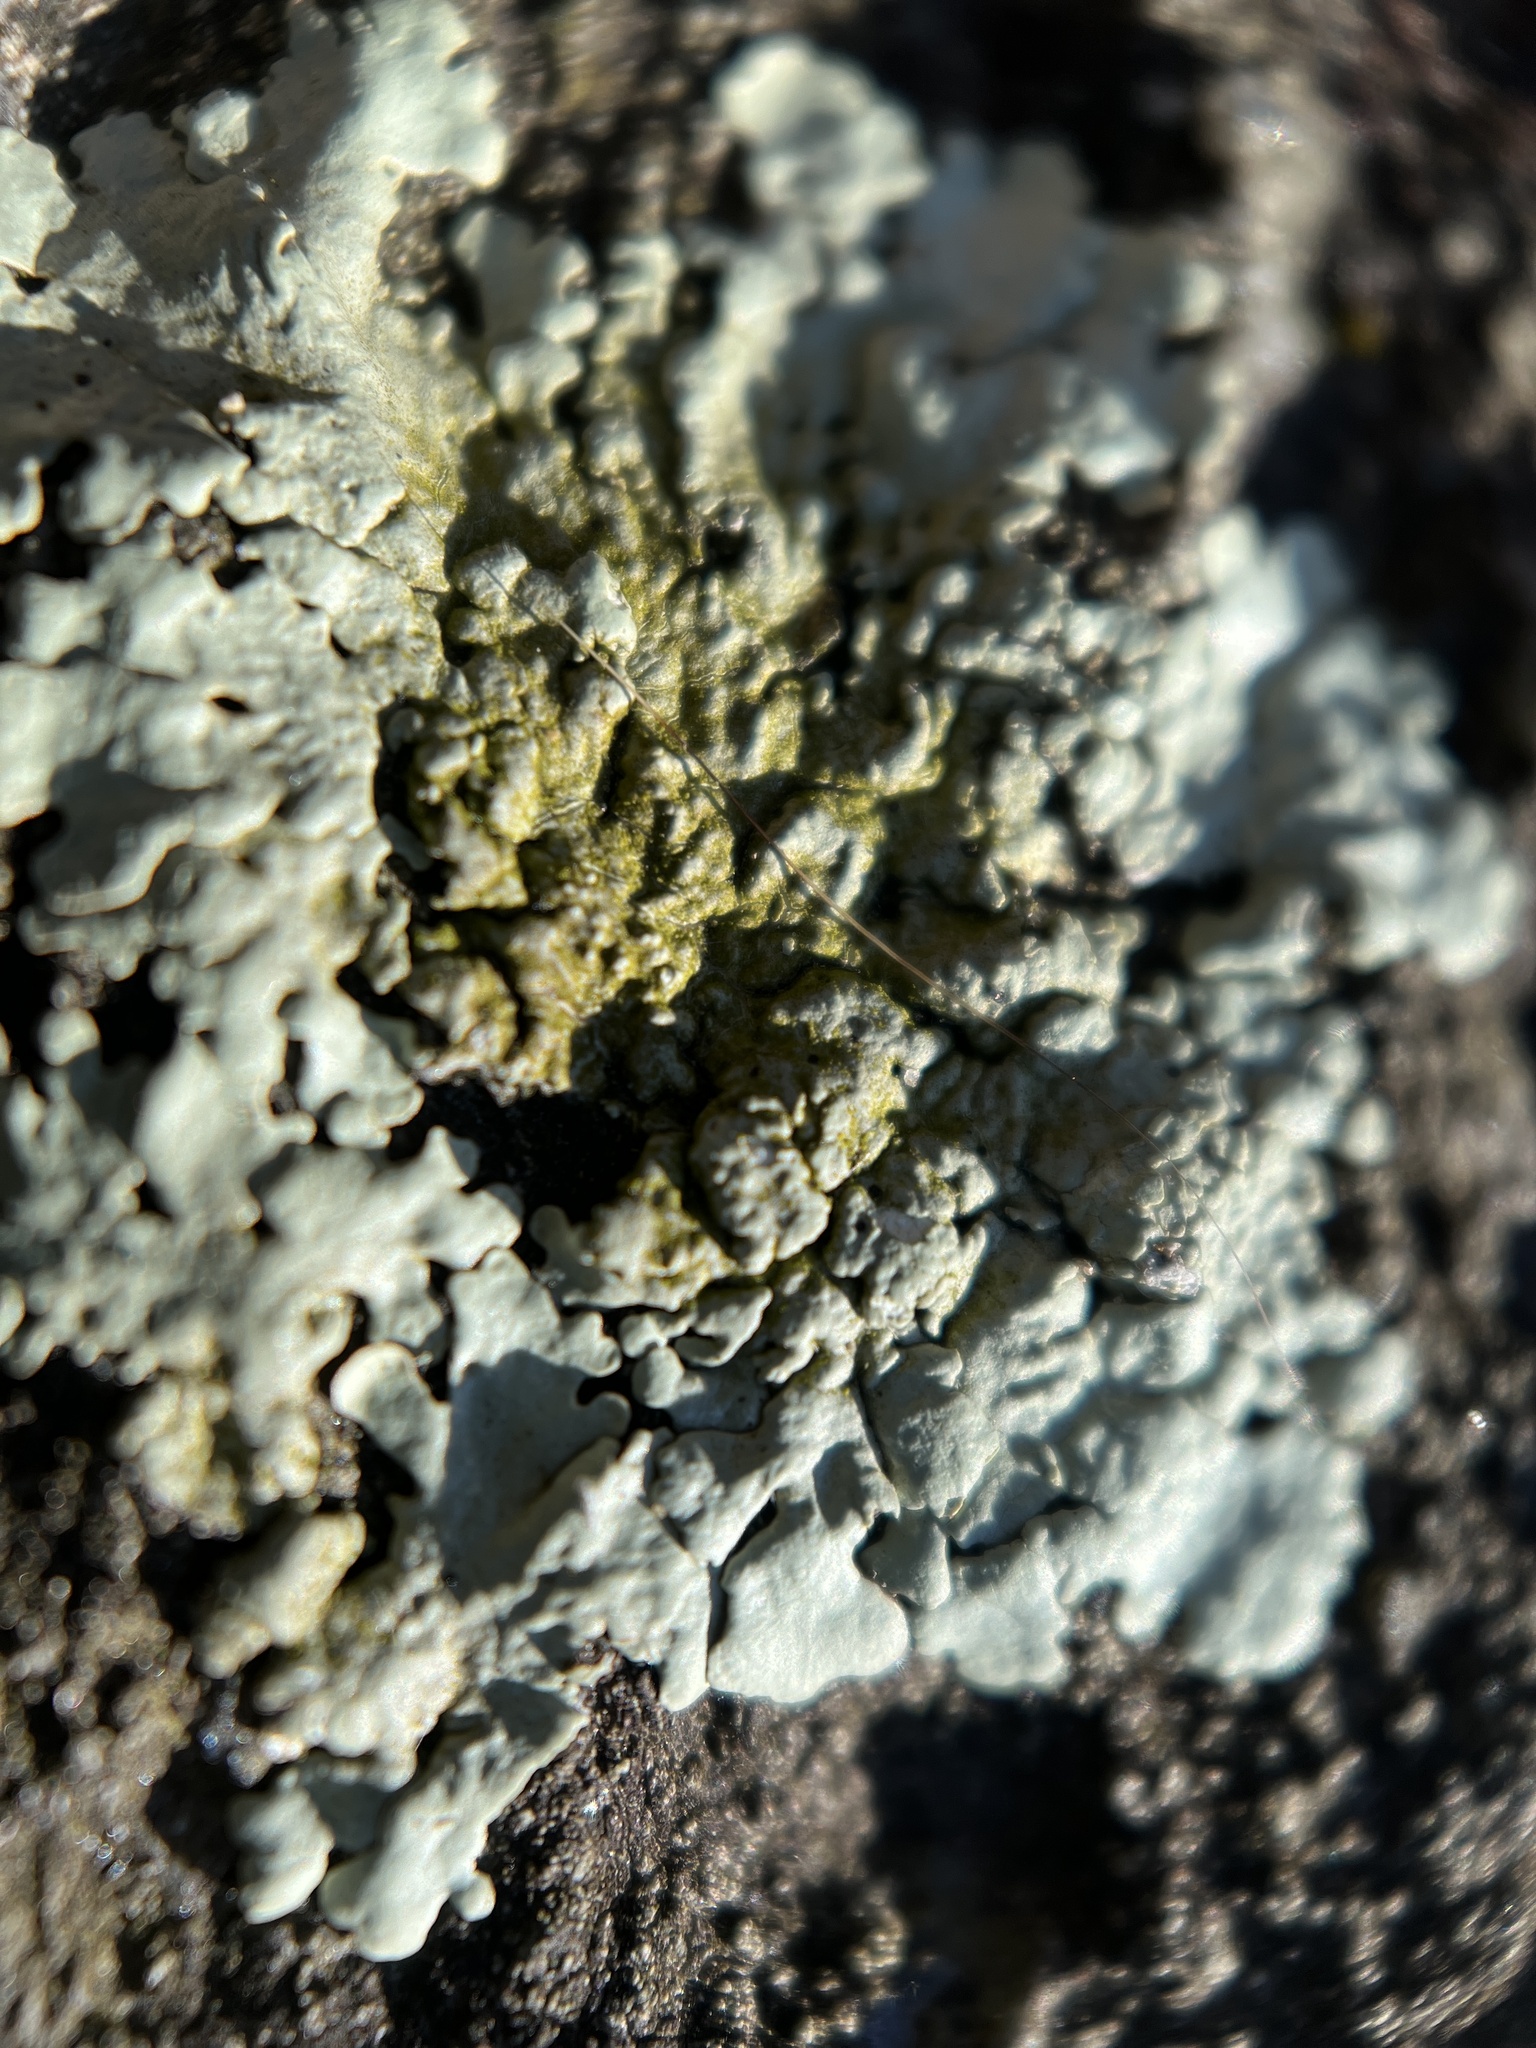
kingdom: Fungi
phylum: Ascomycota
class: Lecanoromycetes
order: Lecanorales
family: Parmeliaceae
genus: Flavoparmelia
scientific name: Flavoparmelia baltimorensis
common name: Rock greenshield
